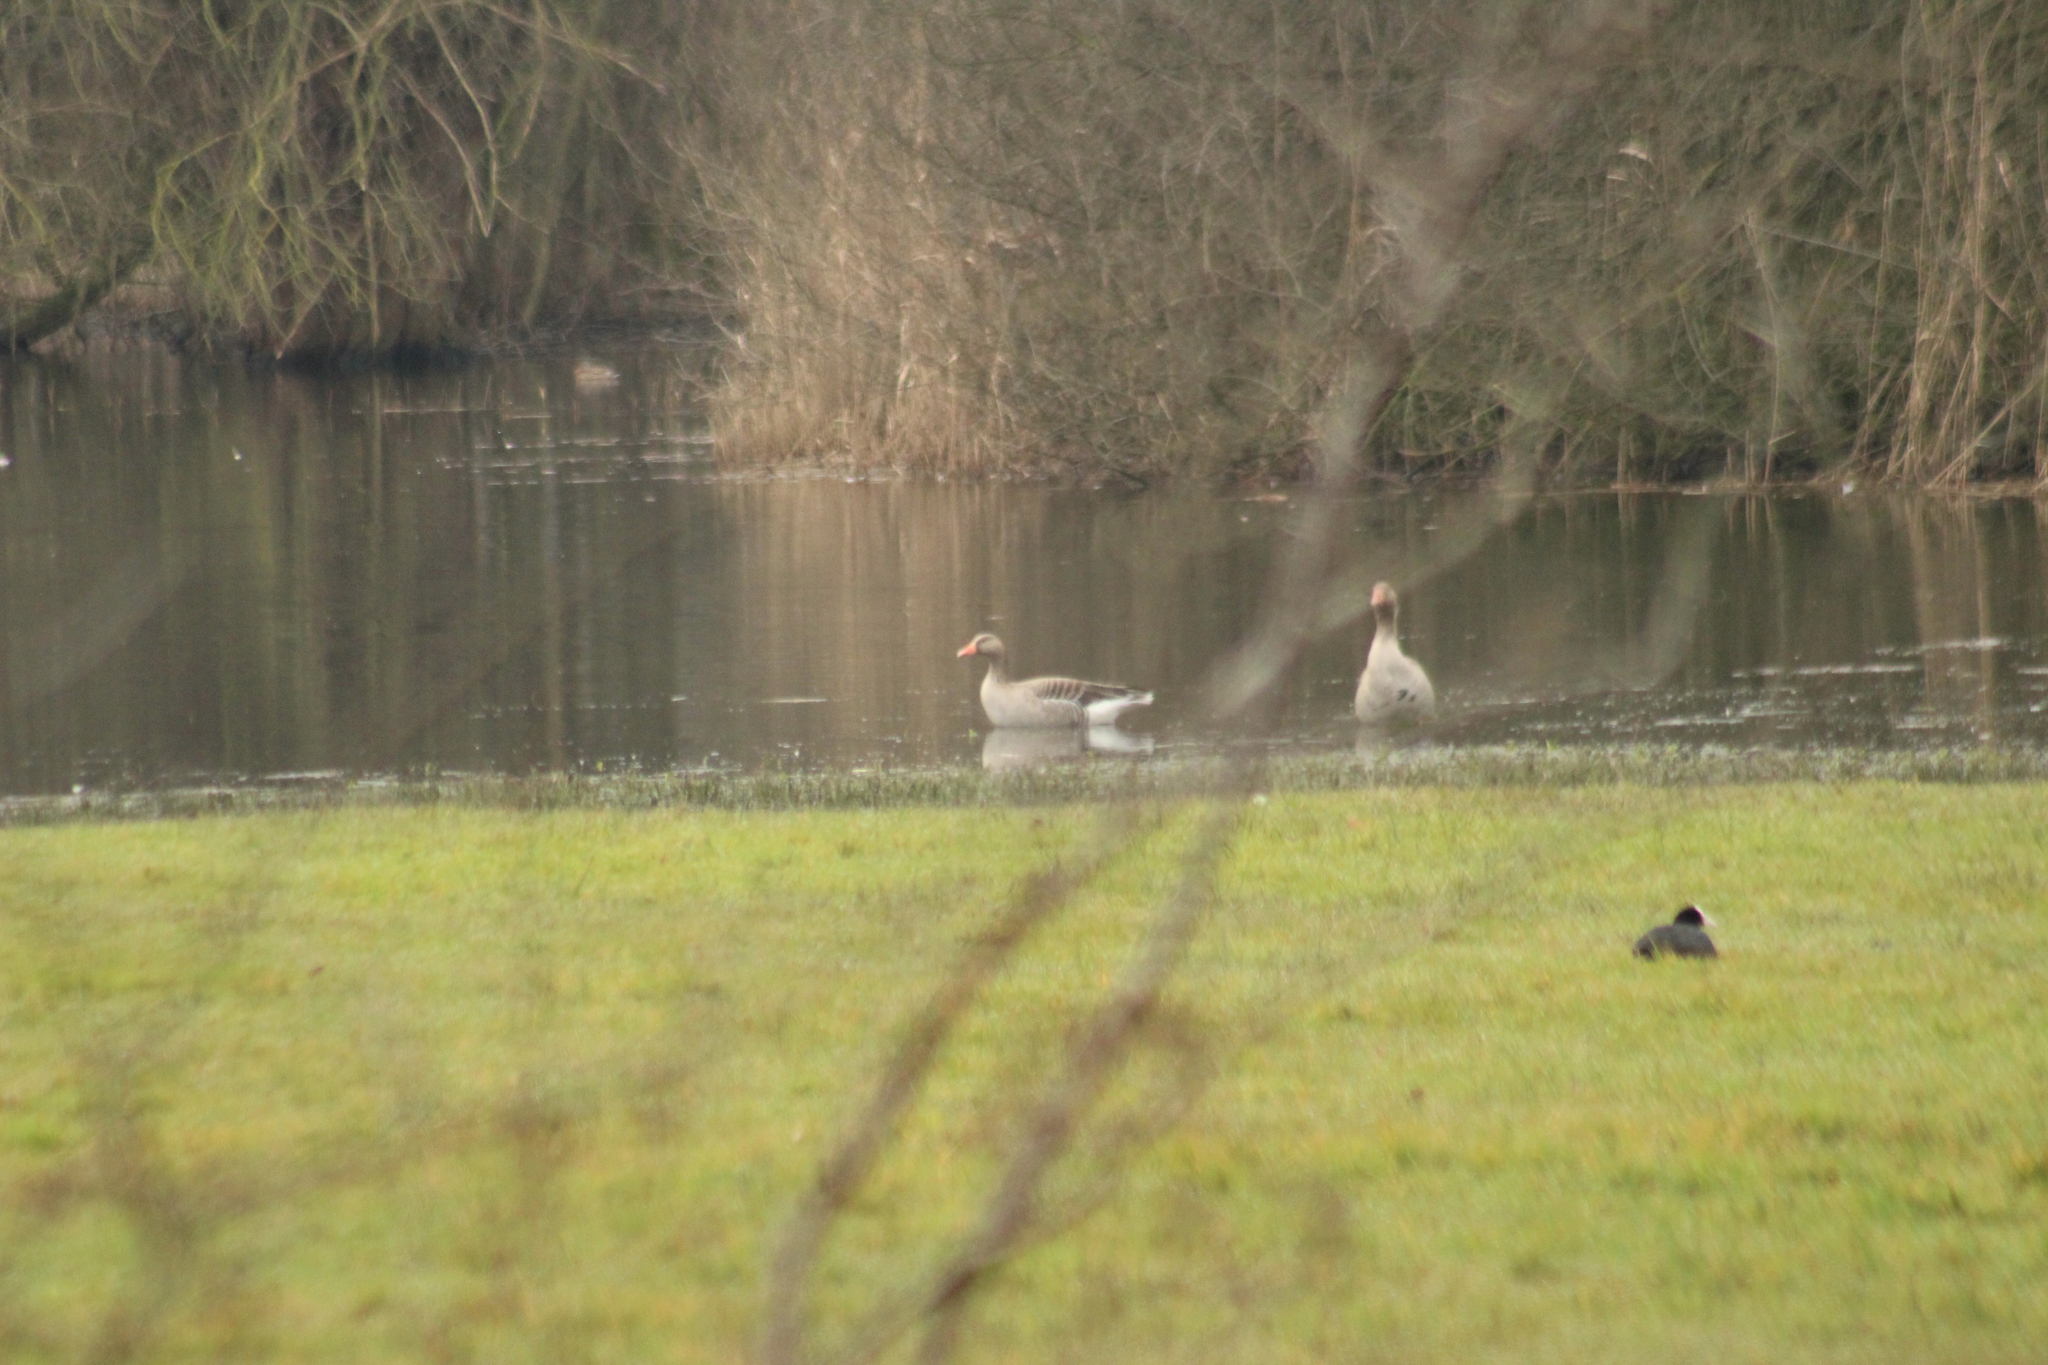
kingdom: Animalia
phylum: Chordata
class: Aves
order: Anseriformes
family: Anatidae
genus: Anser
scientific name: Anser anser
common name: Greylag goose
